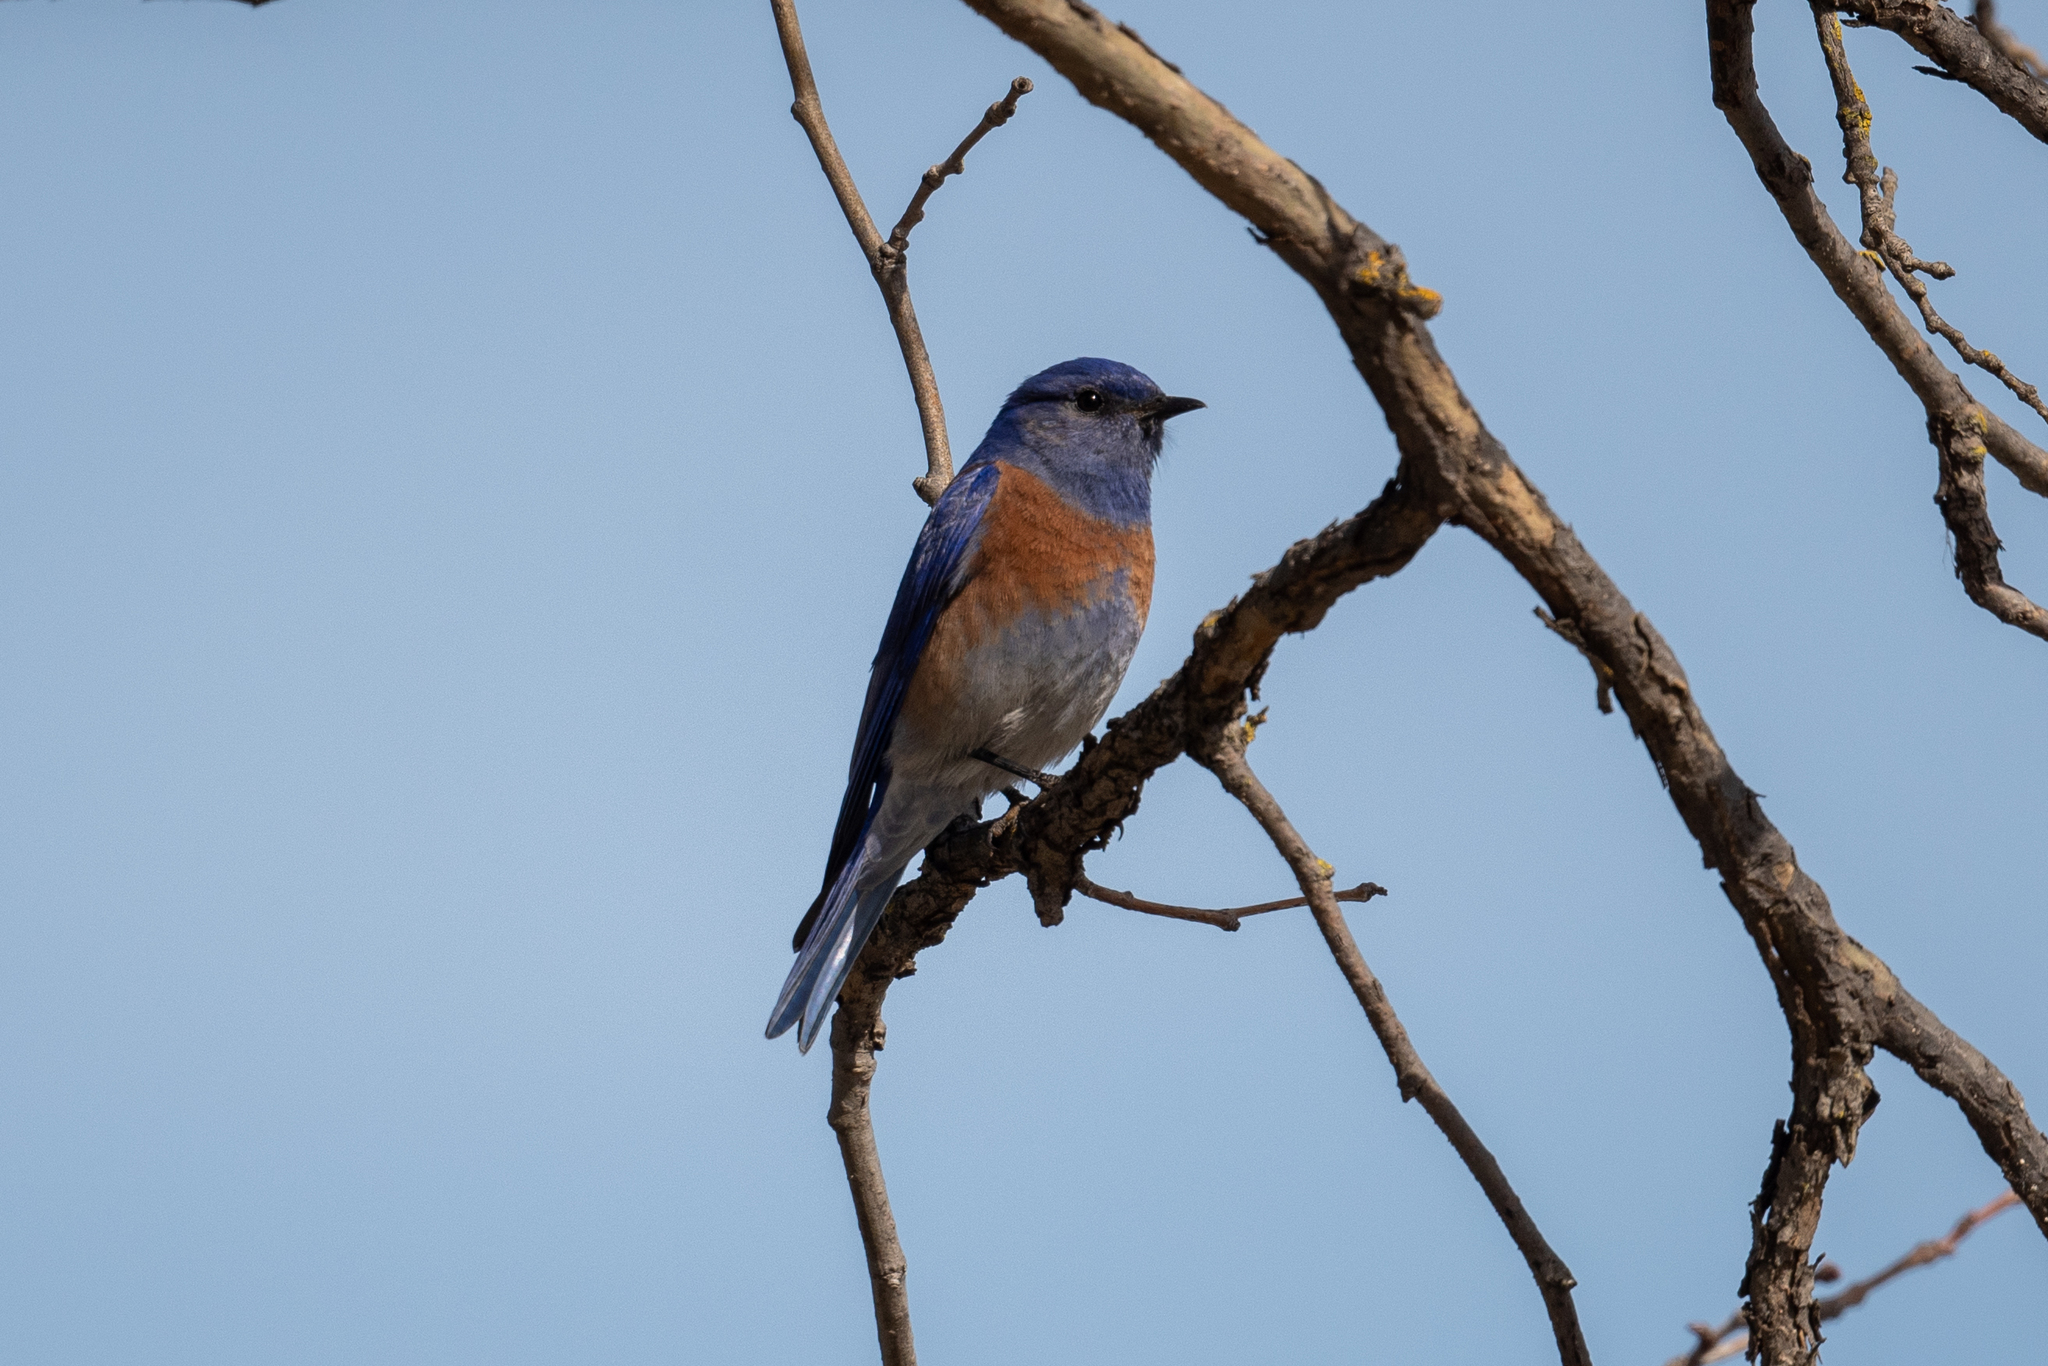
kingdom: Animalia
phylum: Chordata
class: Aves
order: Passeriformes
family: Turdidae
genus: Sialia
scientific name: Sialia mexicana
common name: Western bluebird
